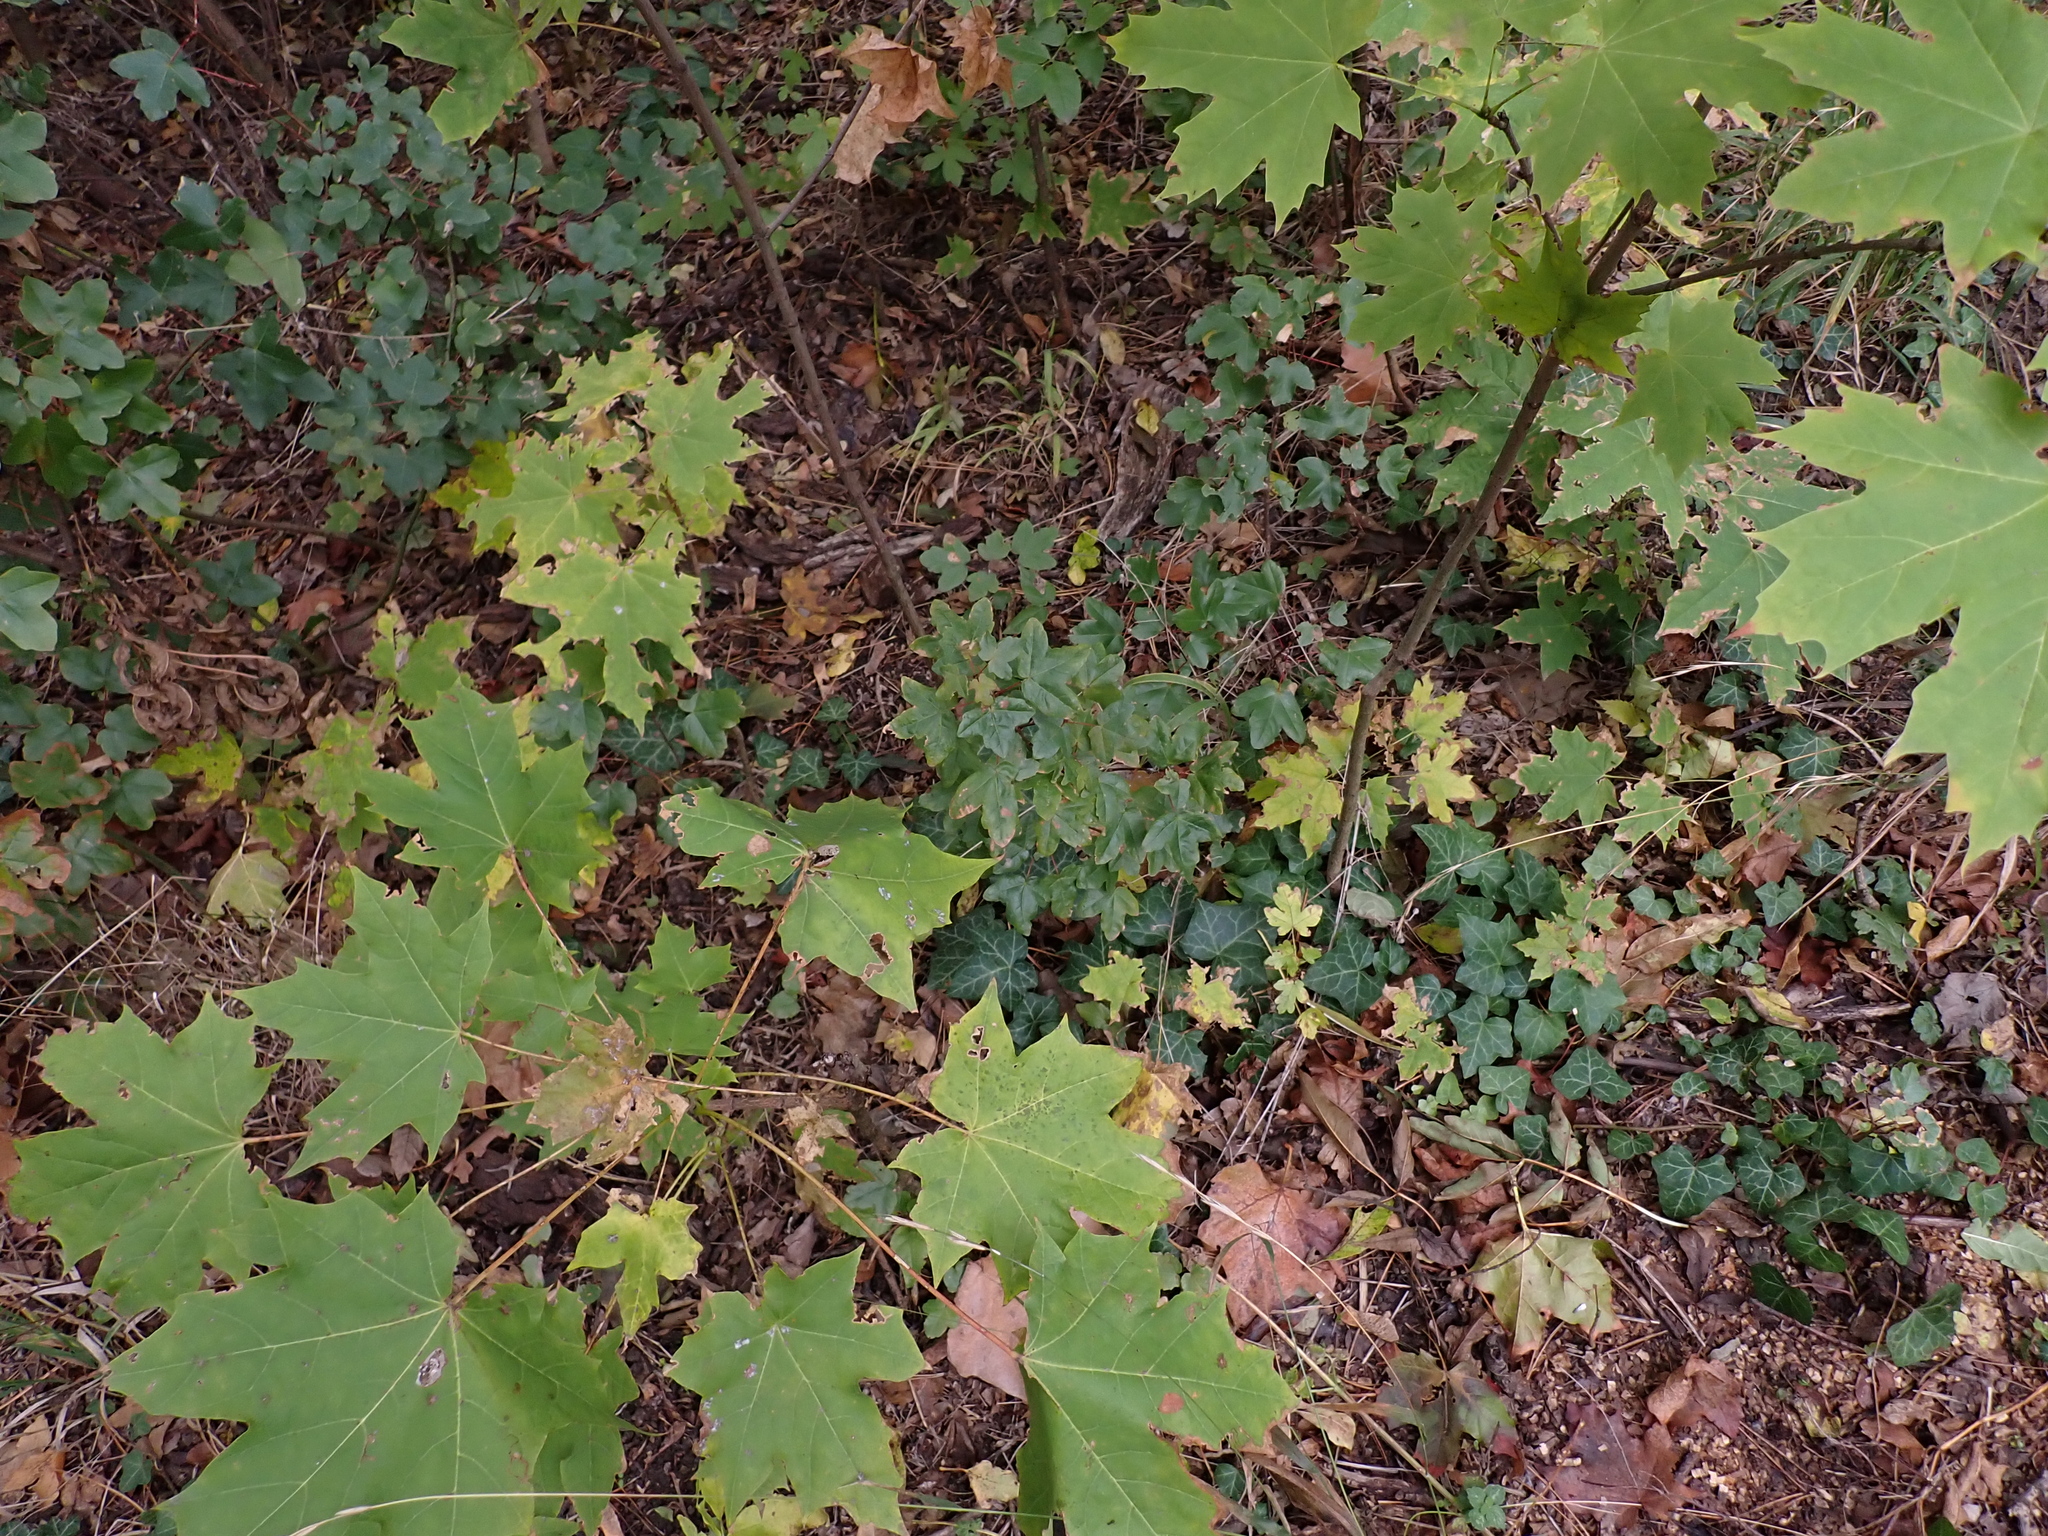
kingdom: Plantae
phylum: Tracheophyta
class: Magnoliopsida
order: Sapindales
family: Sapindaceae
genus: Acer
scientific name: Acer monspessulanum
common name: Montpellier maple
